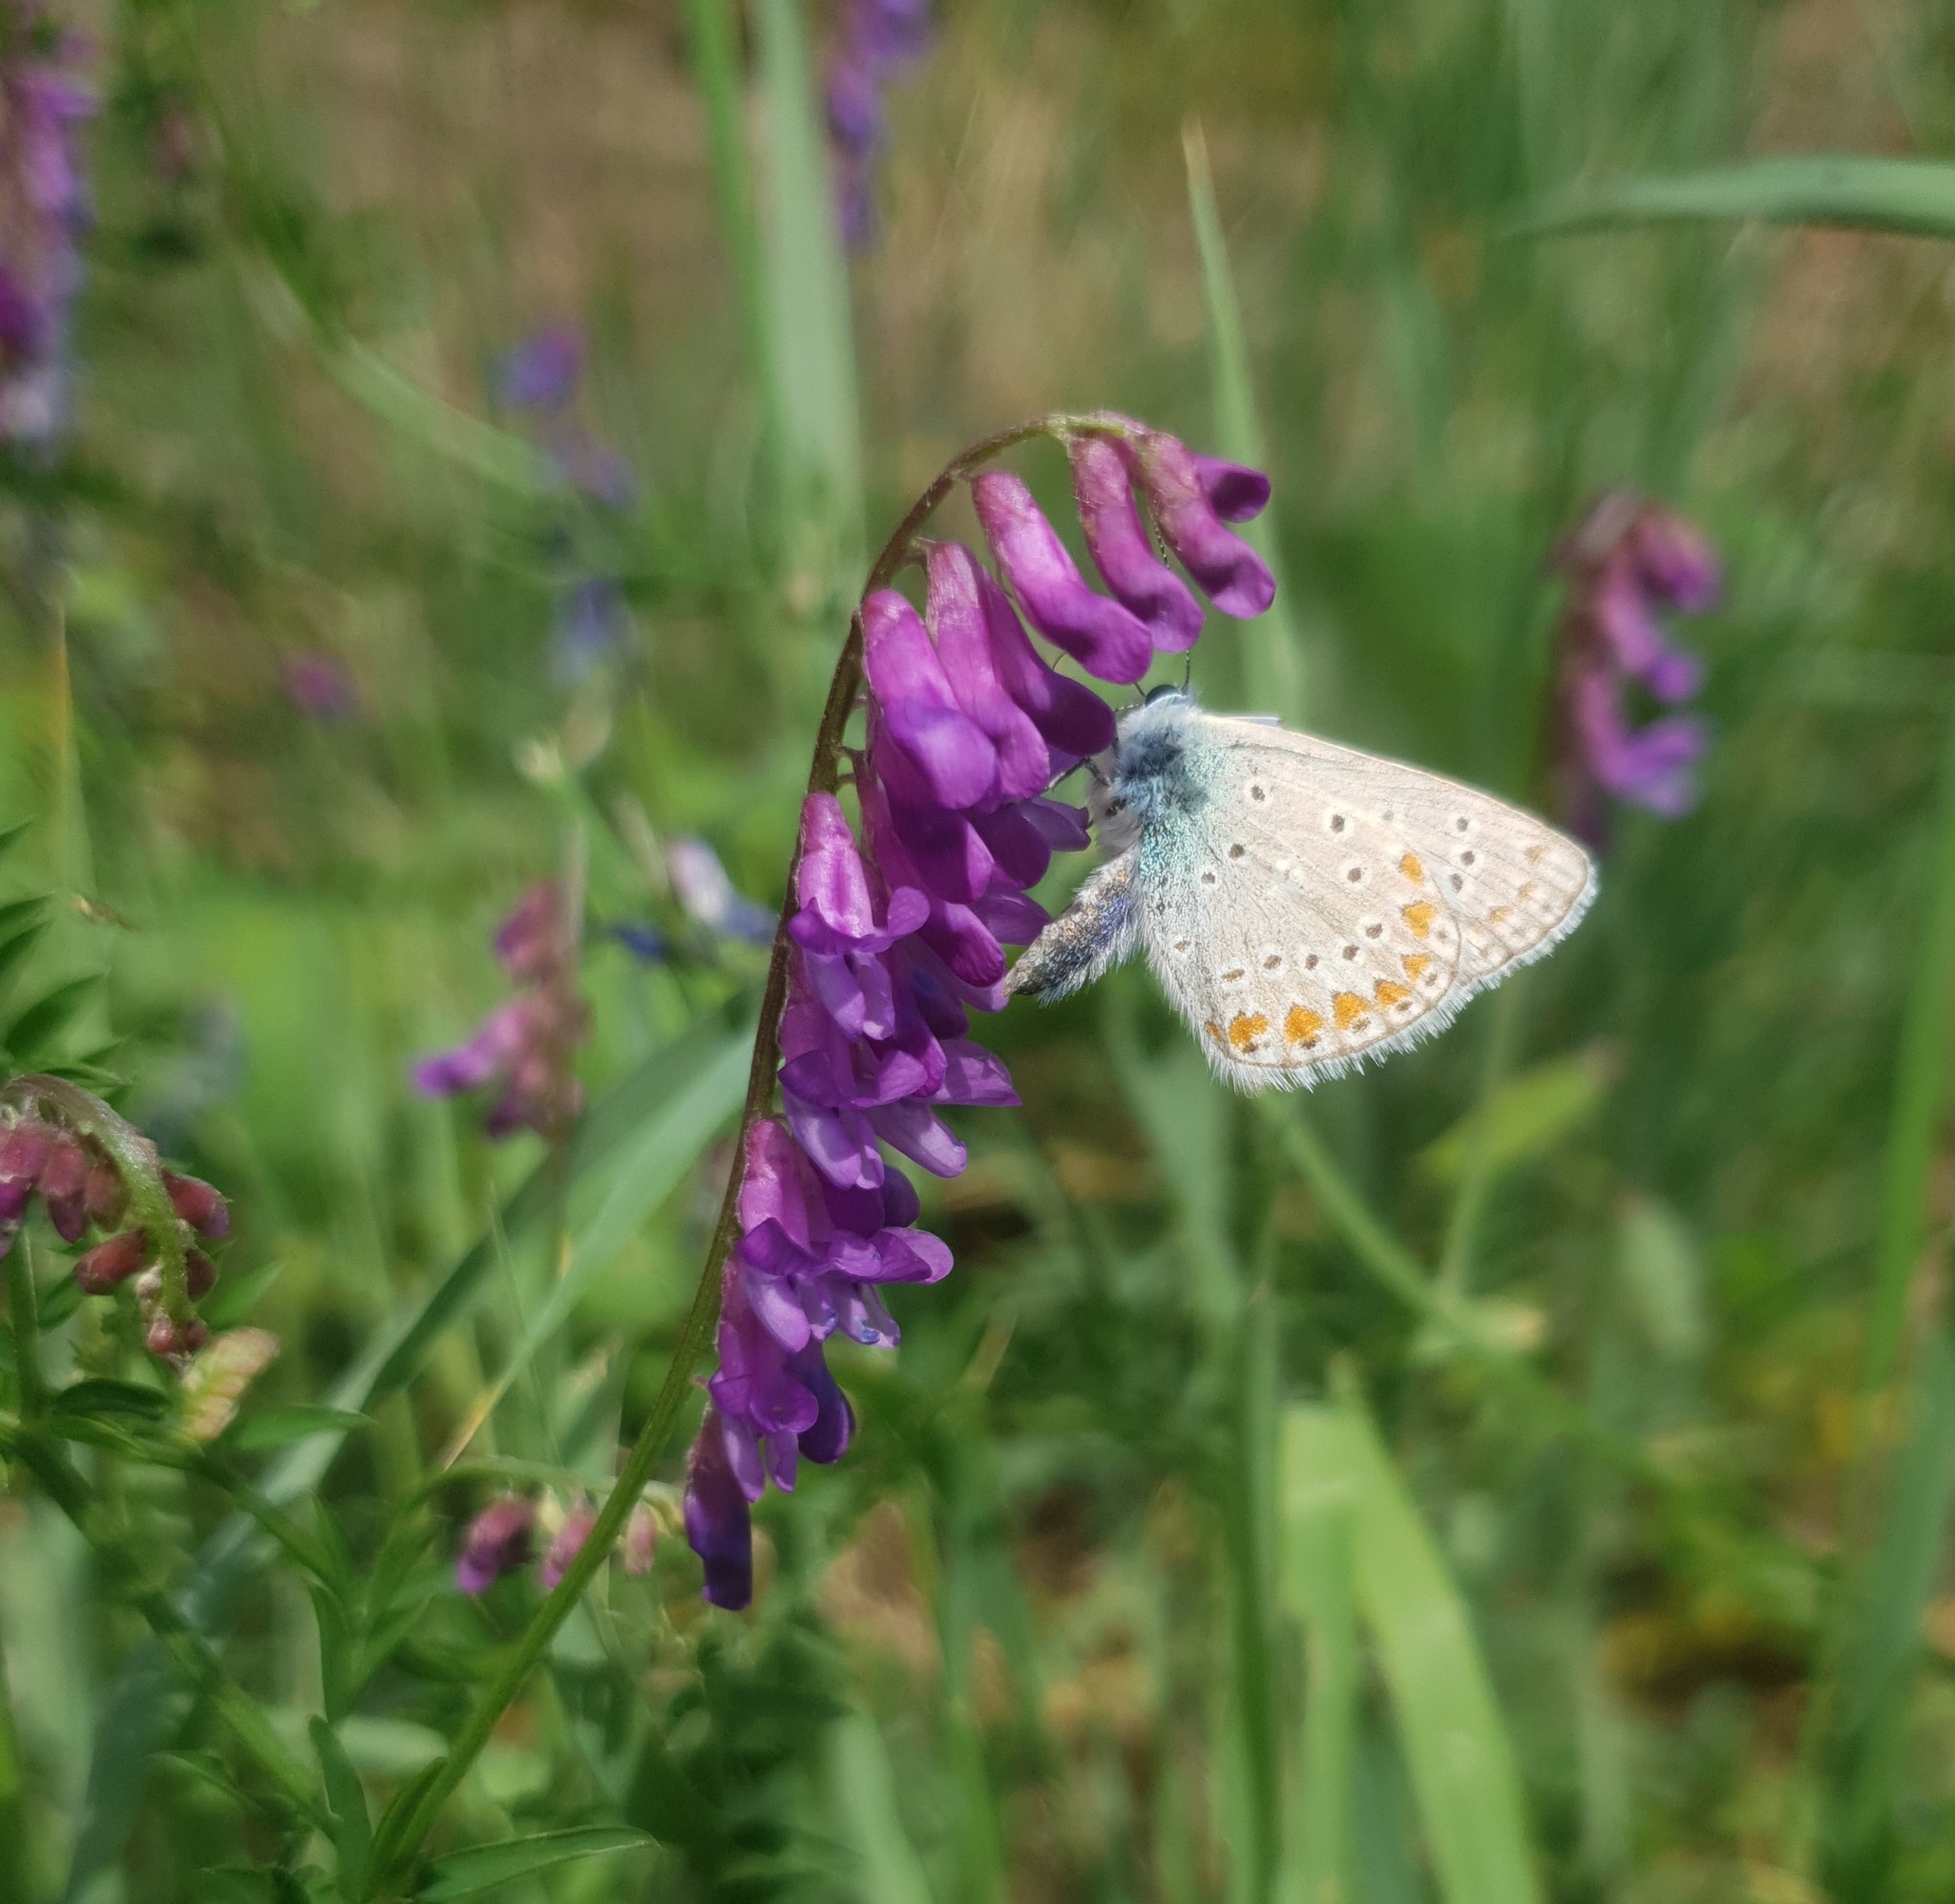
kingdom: Animalia
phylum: Arthropoda
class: Insecta
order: Lepidoptera
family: Lycaenidae
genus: Polyommatus
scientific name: Polyommatus icarus
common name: Common blue
